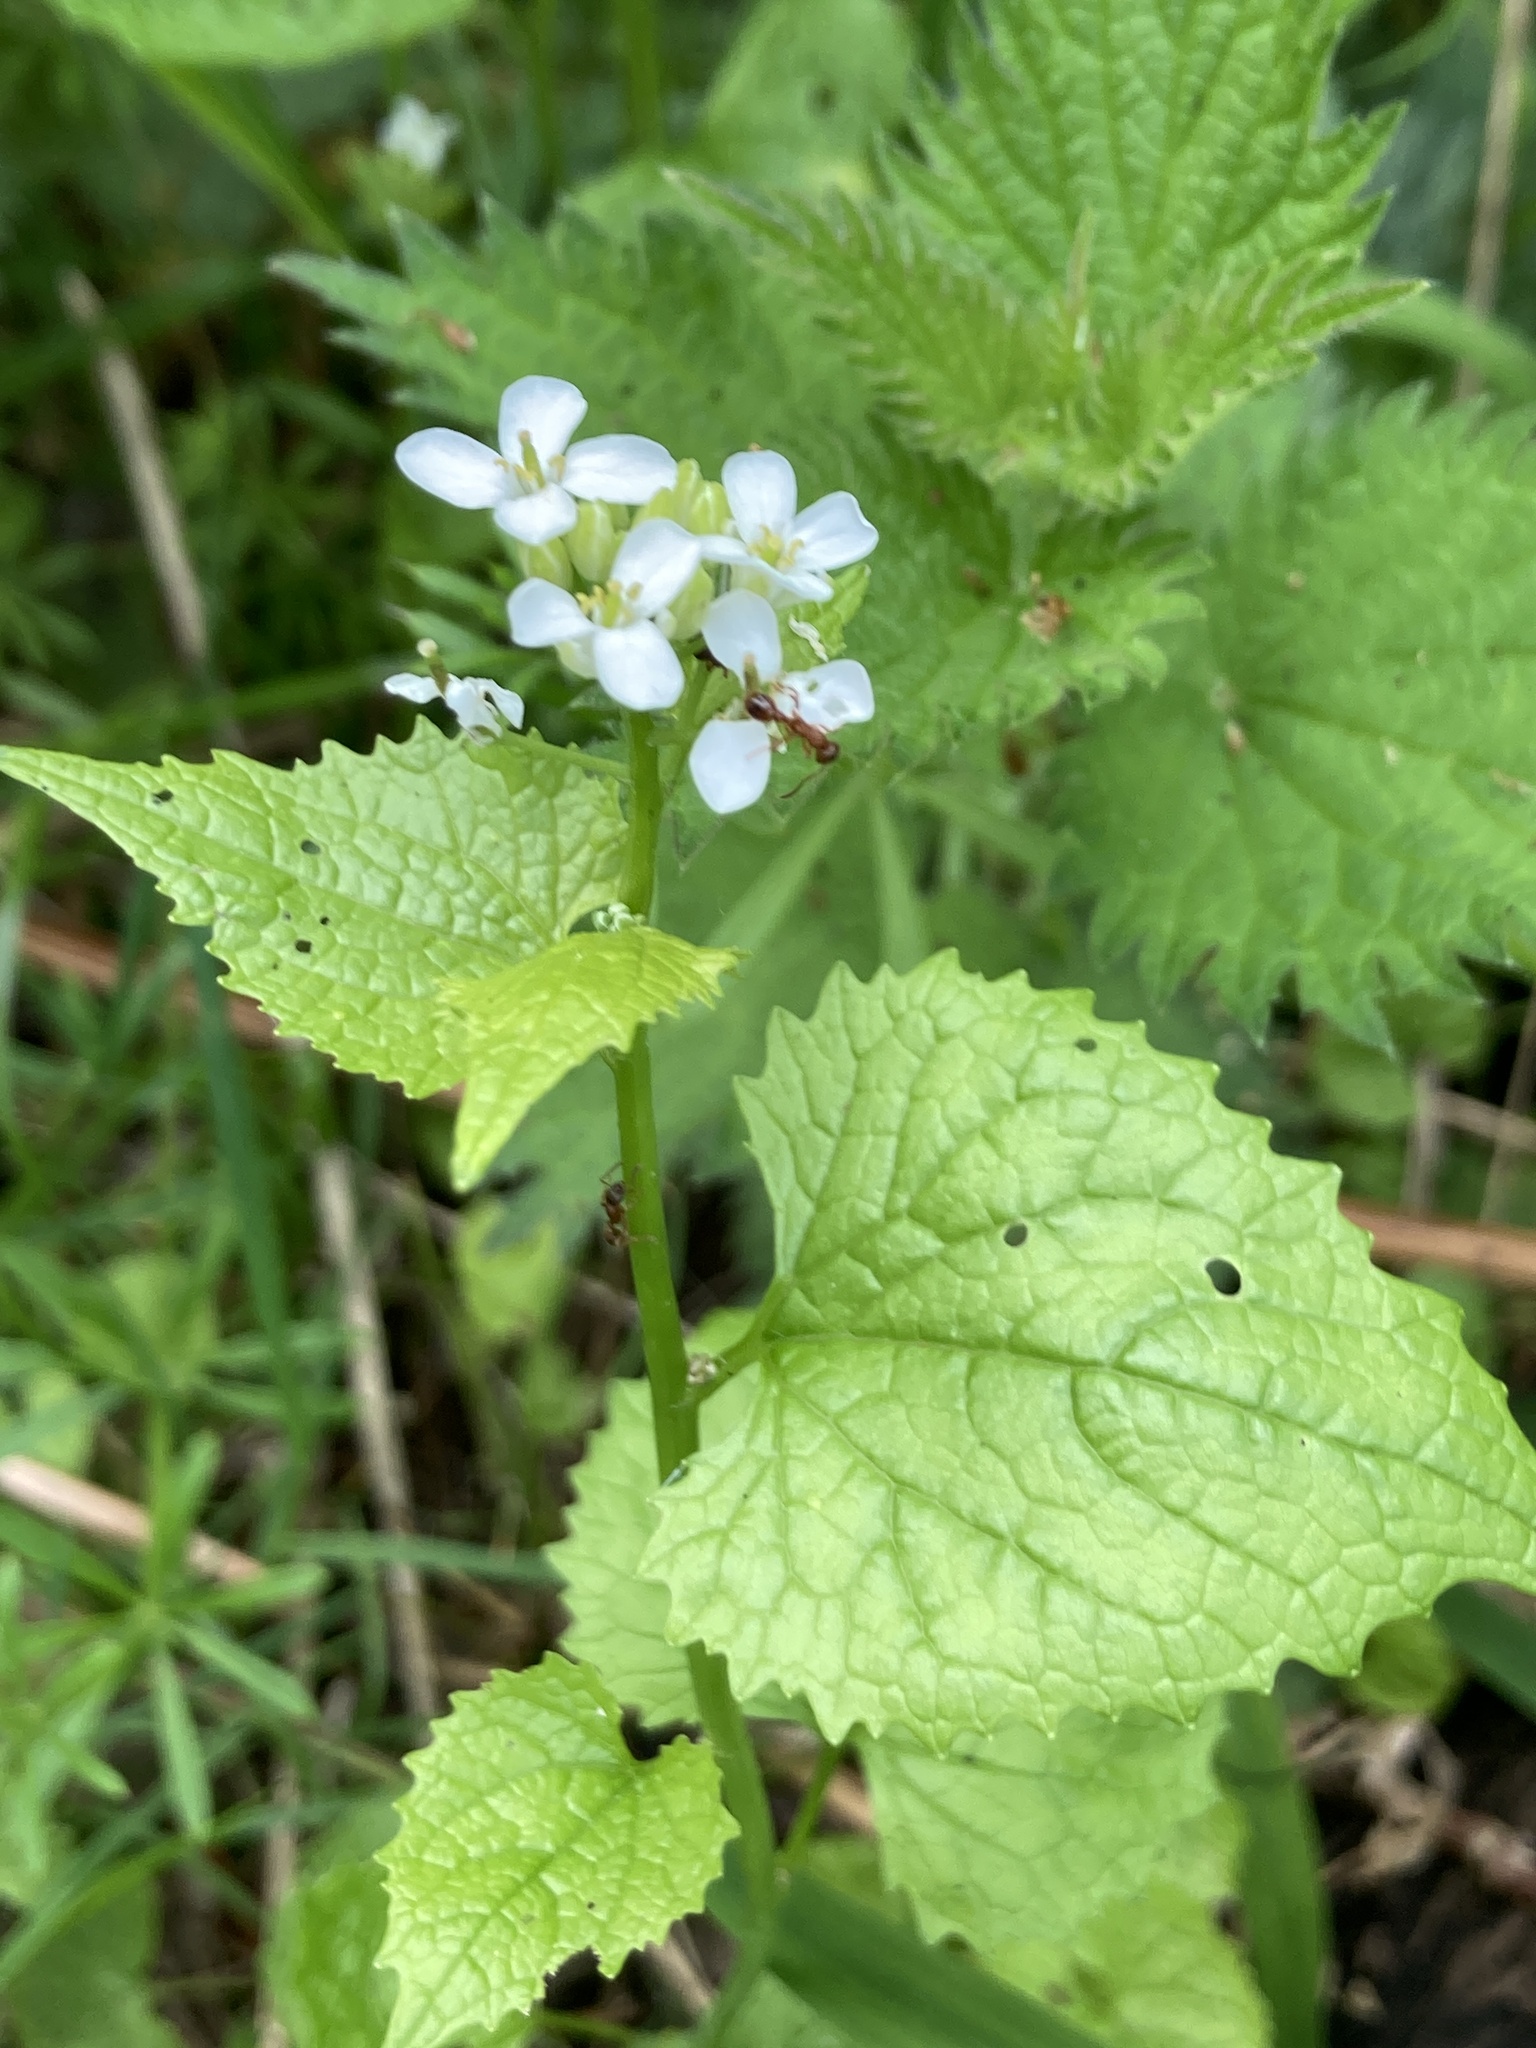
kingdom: Plantae
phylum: Tracheophyta
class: Magnoliopsida
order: Brassicales
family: Brassicaceae
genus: Alliaria
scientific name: Alliaria petiolata
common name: Garlic mustard
